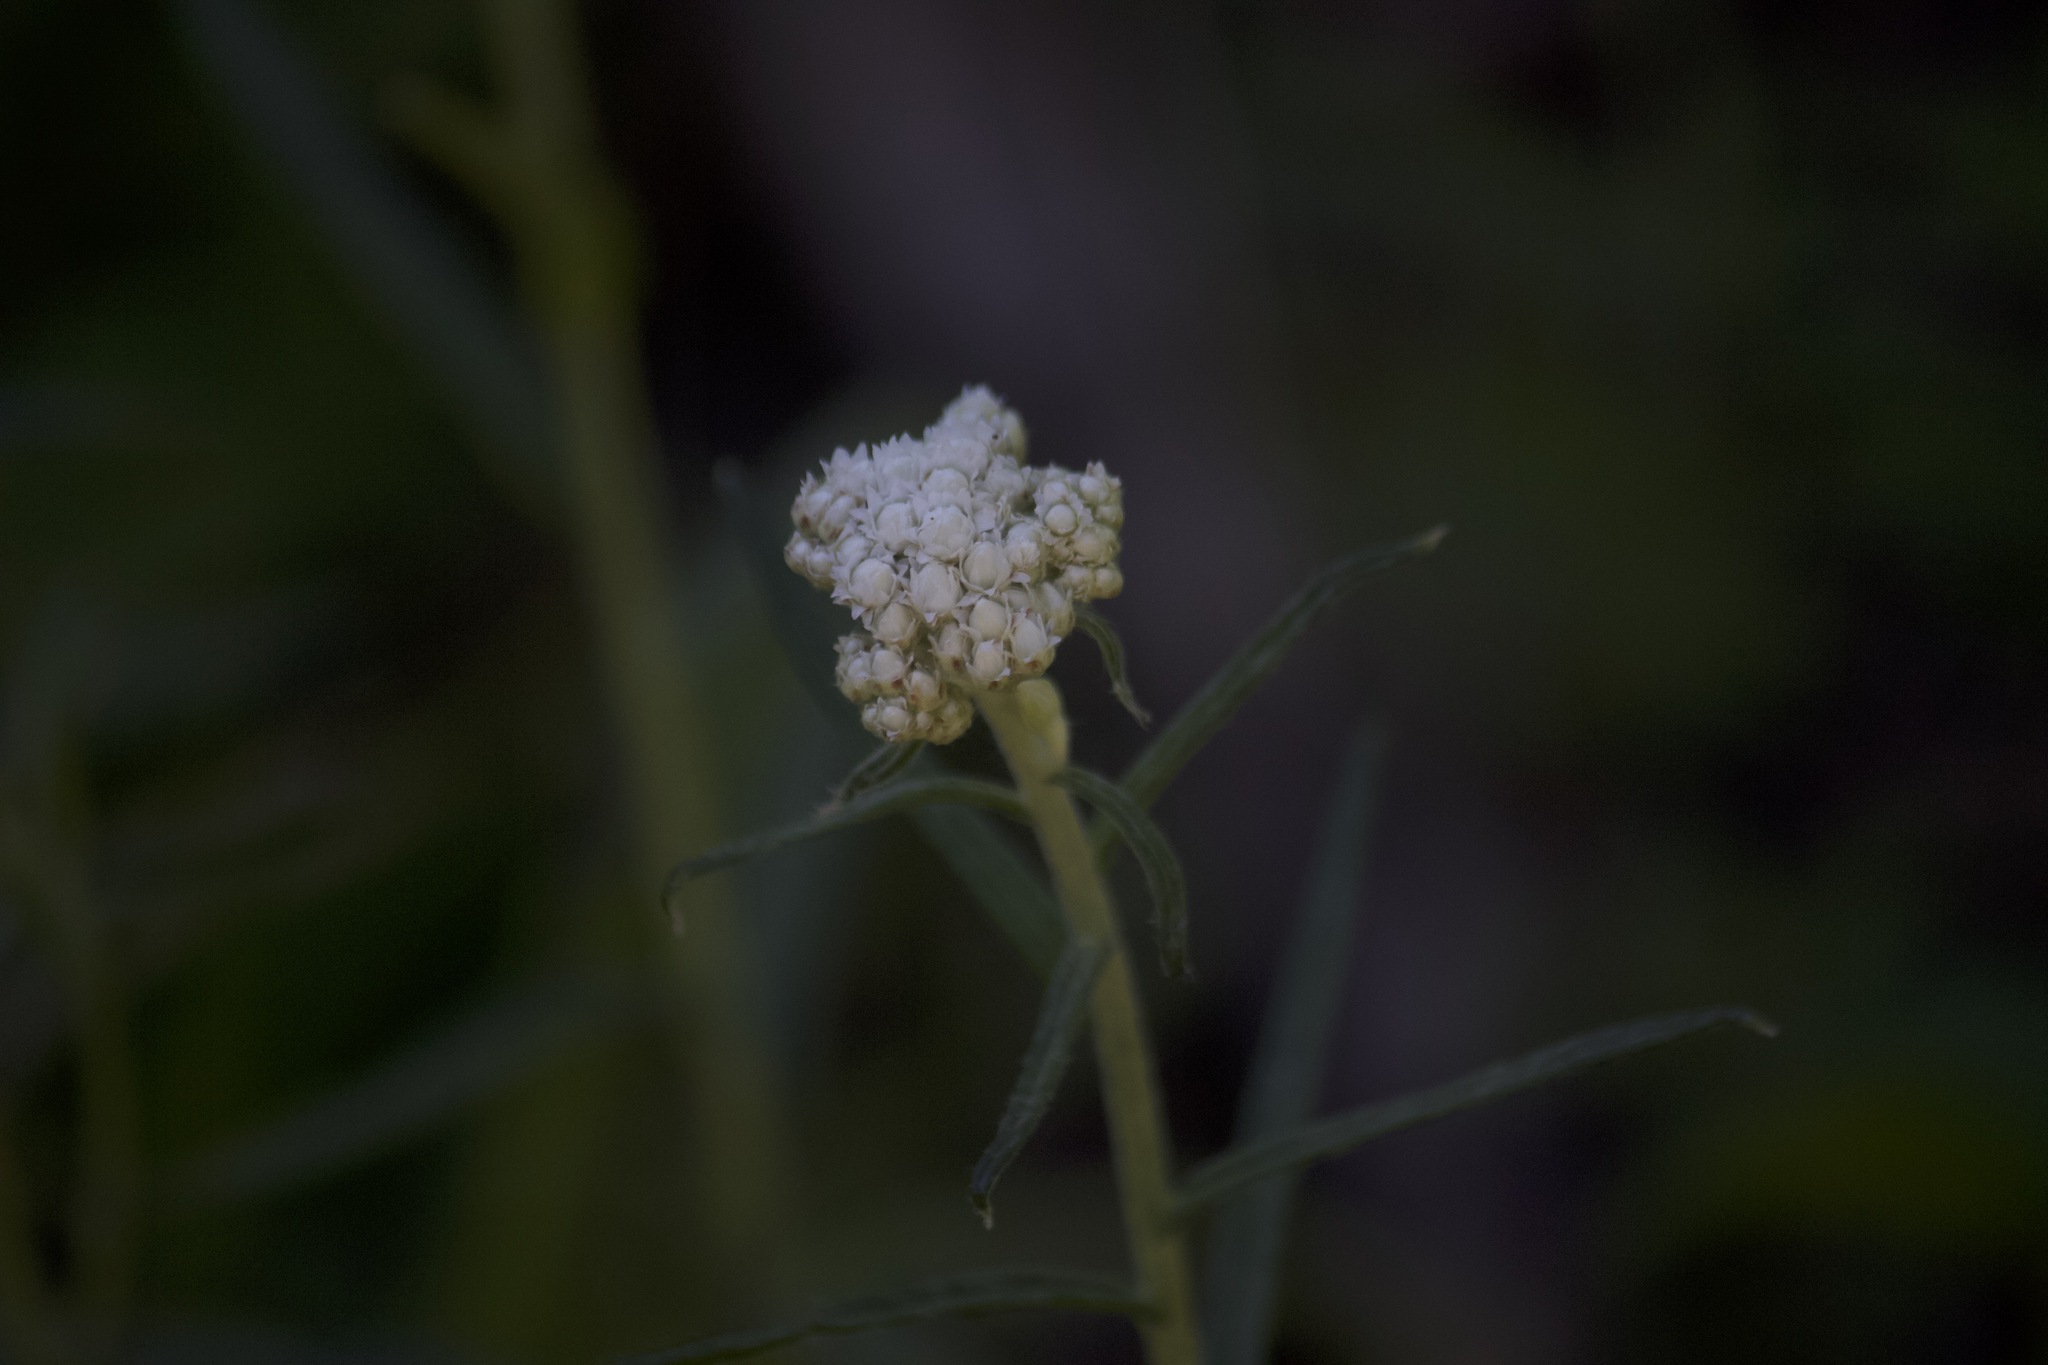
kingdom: Plantae
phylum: Tracheophyta
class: Magnoliopsida
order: Asterales
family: Asteraceae
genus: Anaphalis
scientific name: Anaphalis margaritacea
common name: Pearly everlasting
